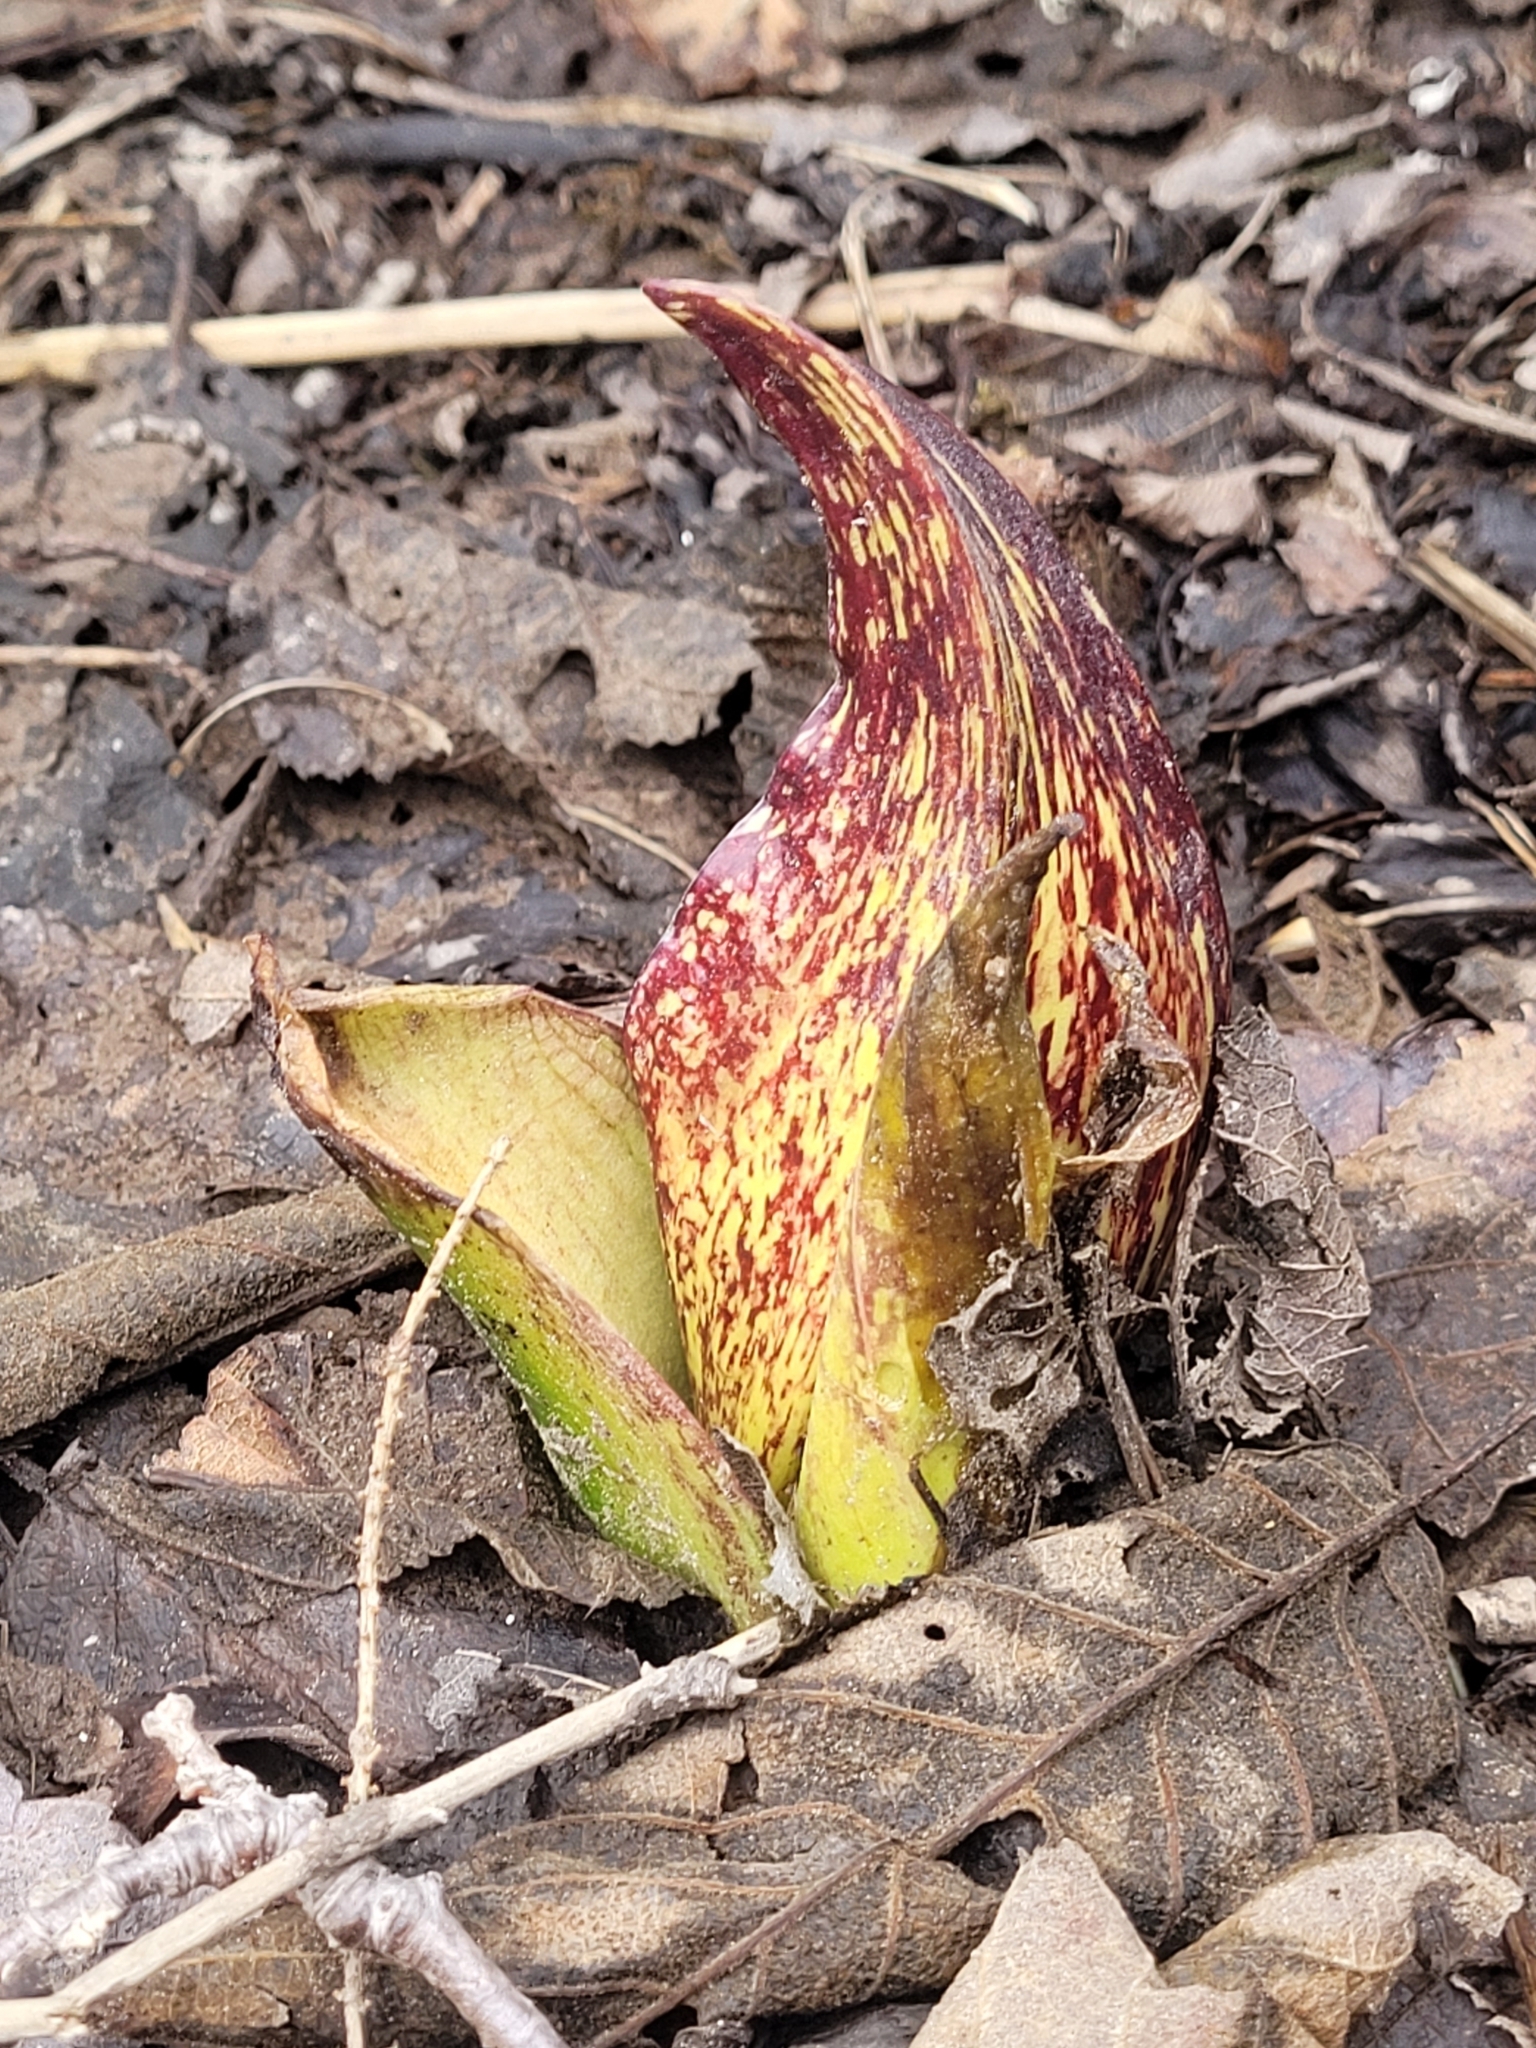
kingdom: Plantae
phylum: Tracheophyta
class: Liliopsida
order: Alismatales
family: Araceae
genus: Symplocarpus
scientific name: Symplocarpus foetidus
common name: Eastern skunk cabbage
